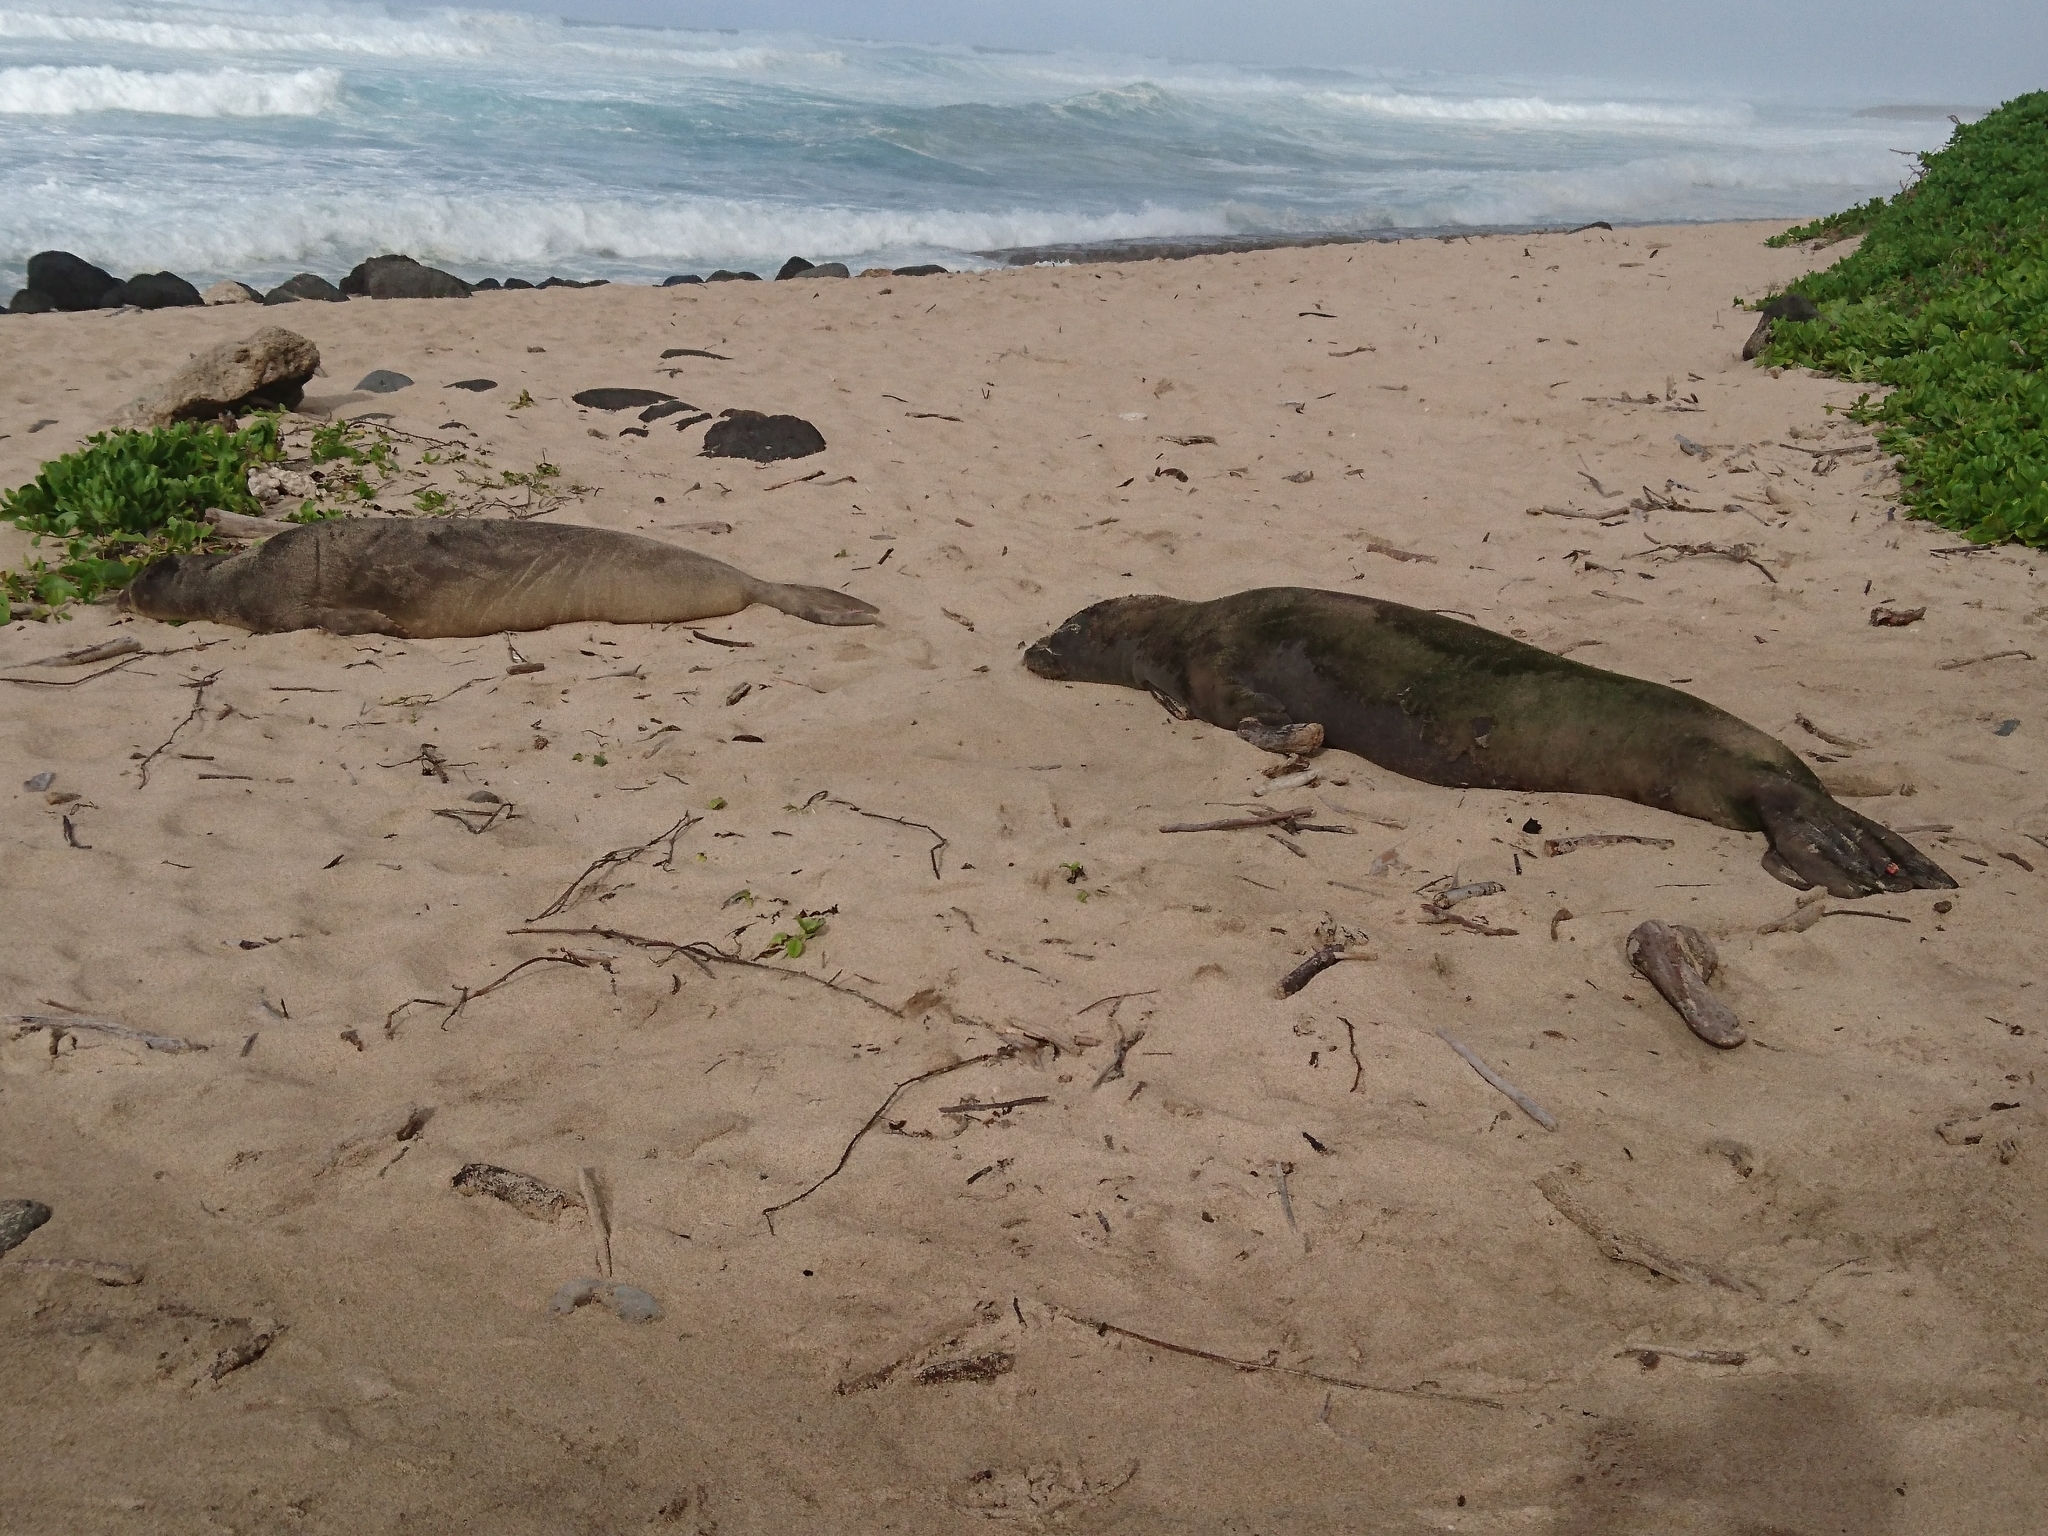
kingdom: Animalia
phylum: Chordata
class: Mammalia
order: Carnivora
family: Phocidae
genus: Neomonachus
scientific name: Neomonachus schauinslandi
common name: Hawaiian monk seal
